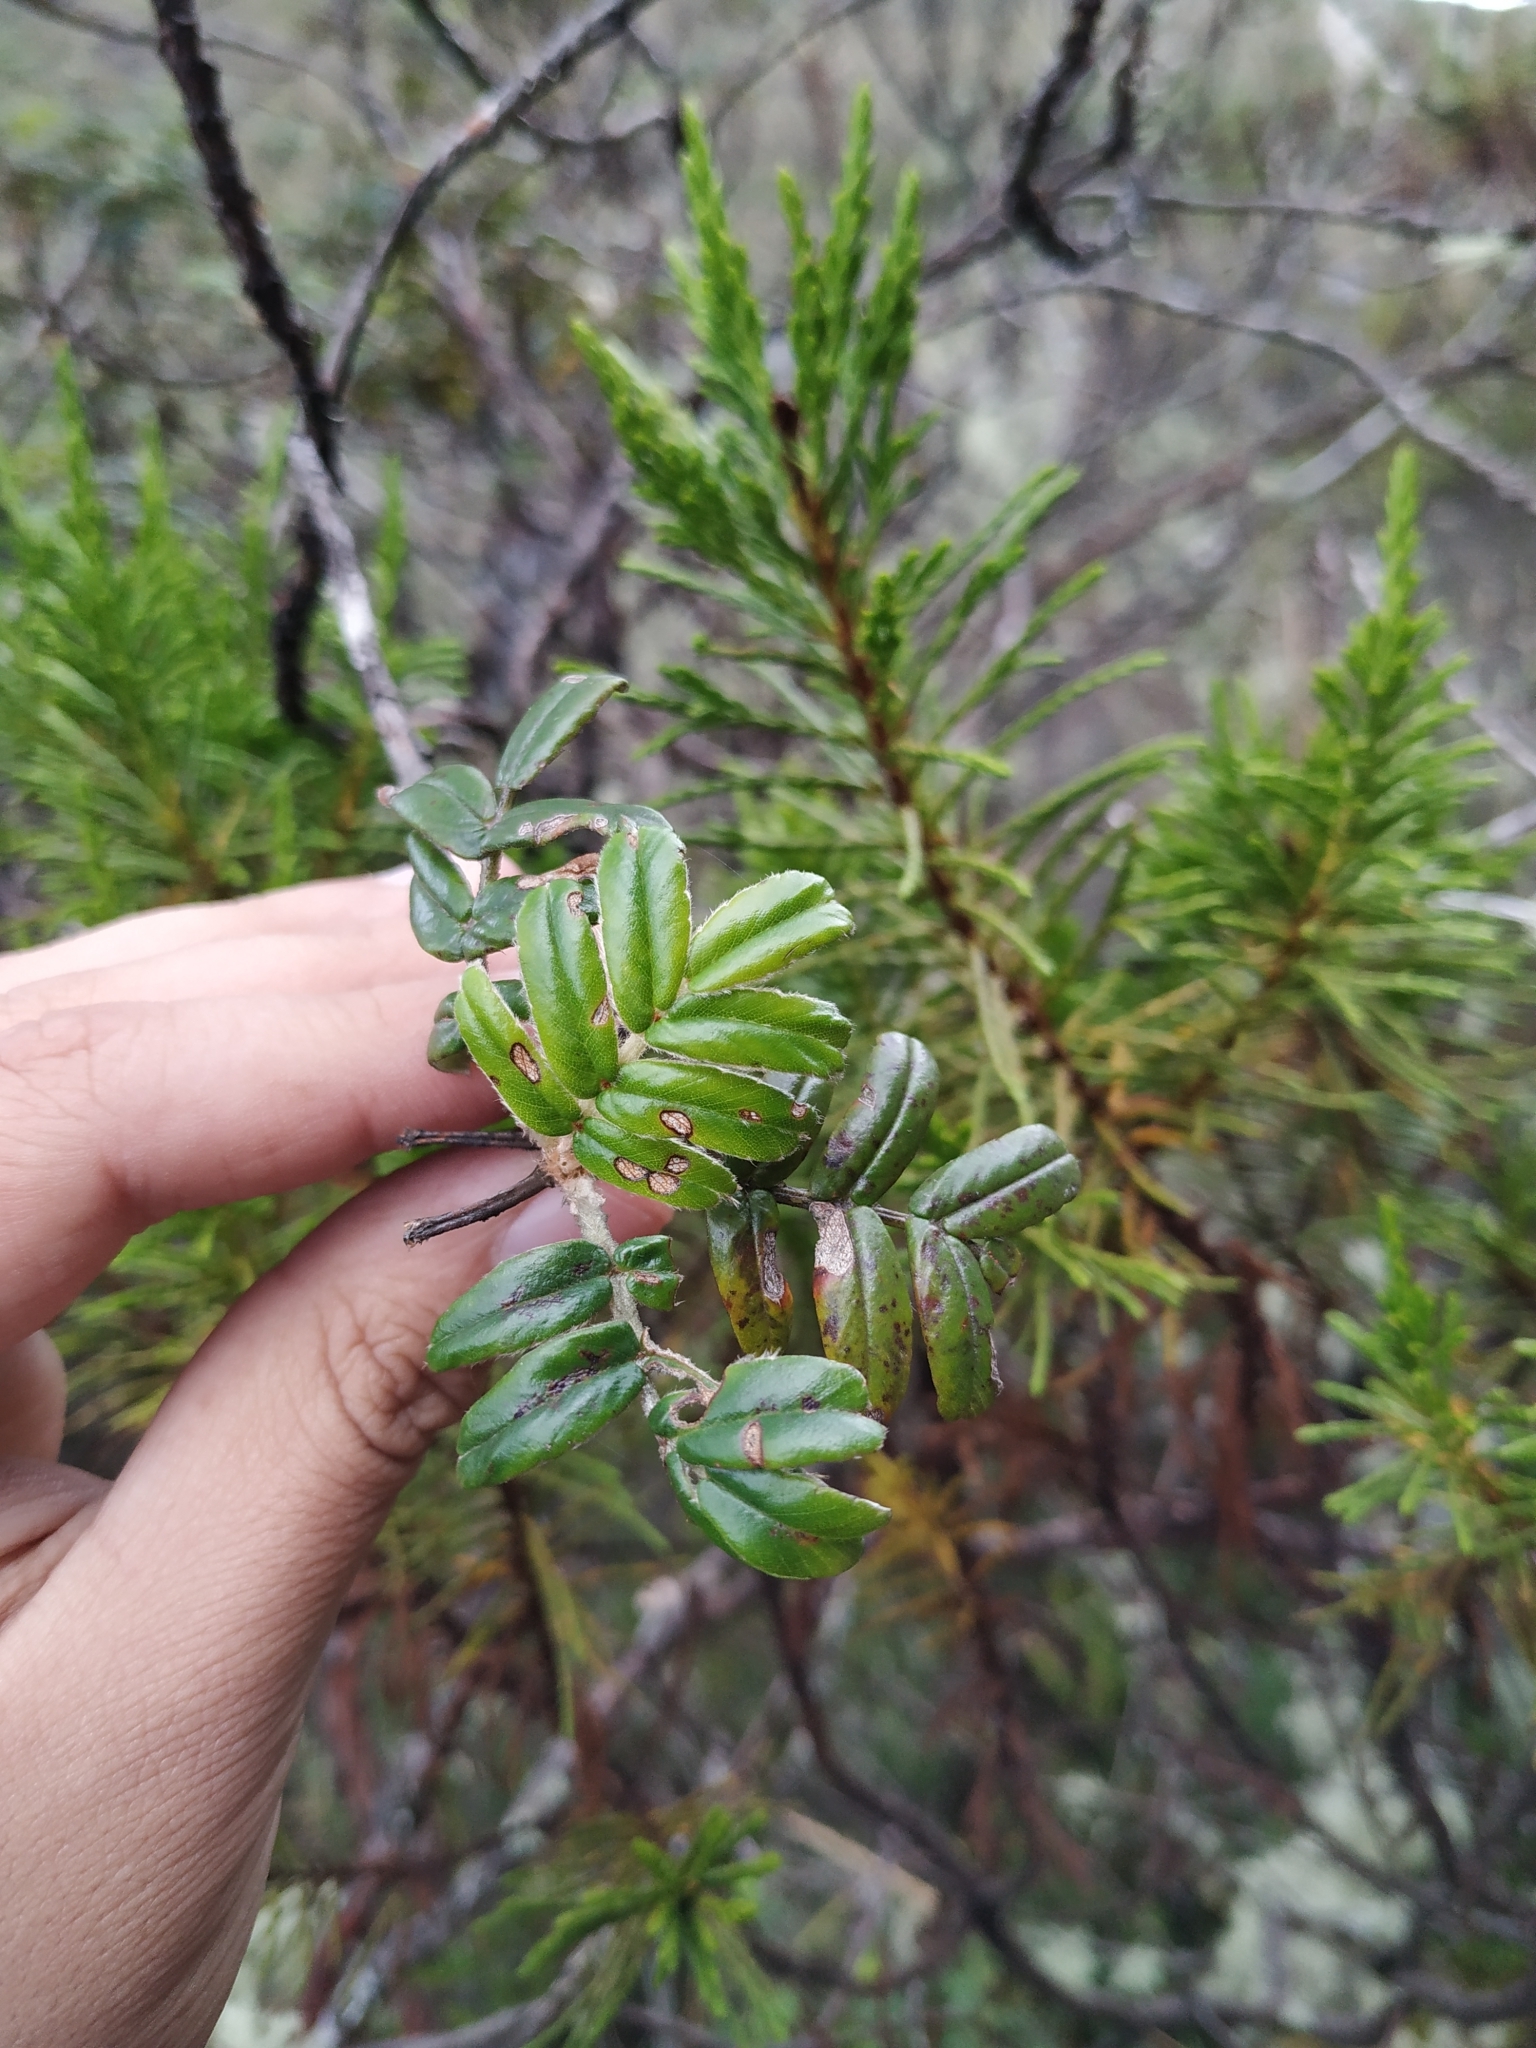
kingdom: Plantae
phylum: Tracheophyta
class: Magnoliopsida
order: Rosales
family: Rosaceae
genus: Polylepis
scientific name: Polylepis quadrijuga
